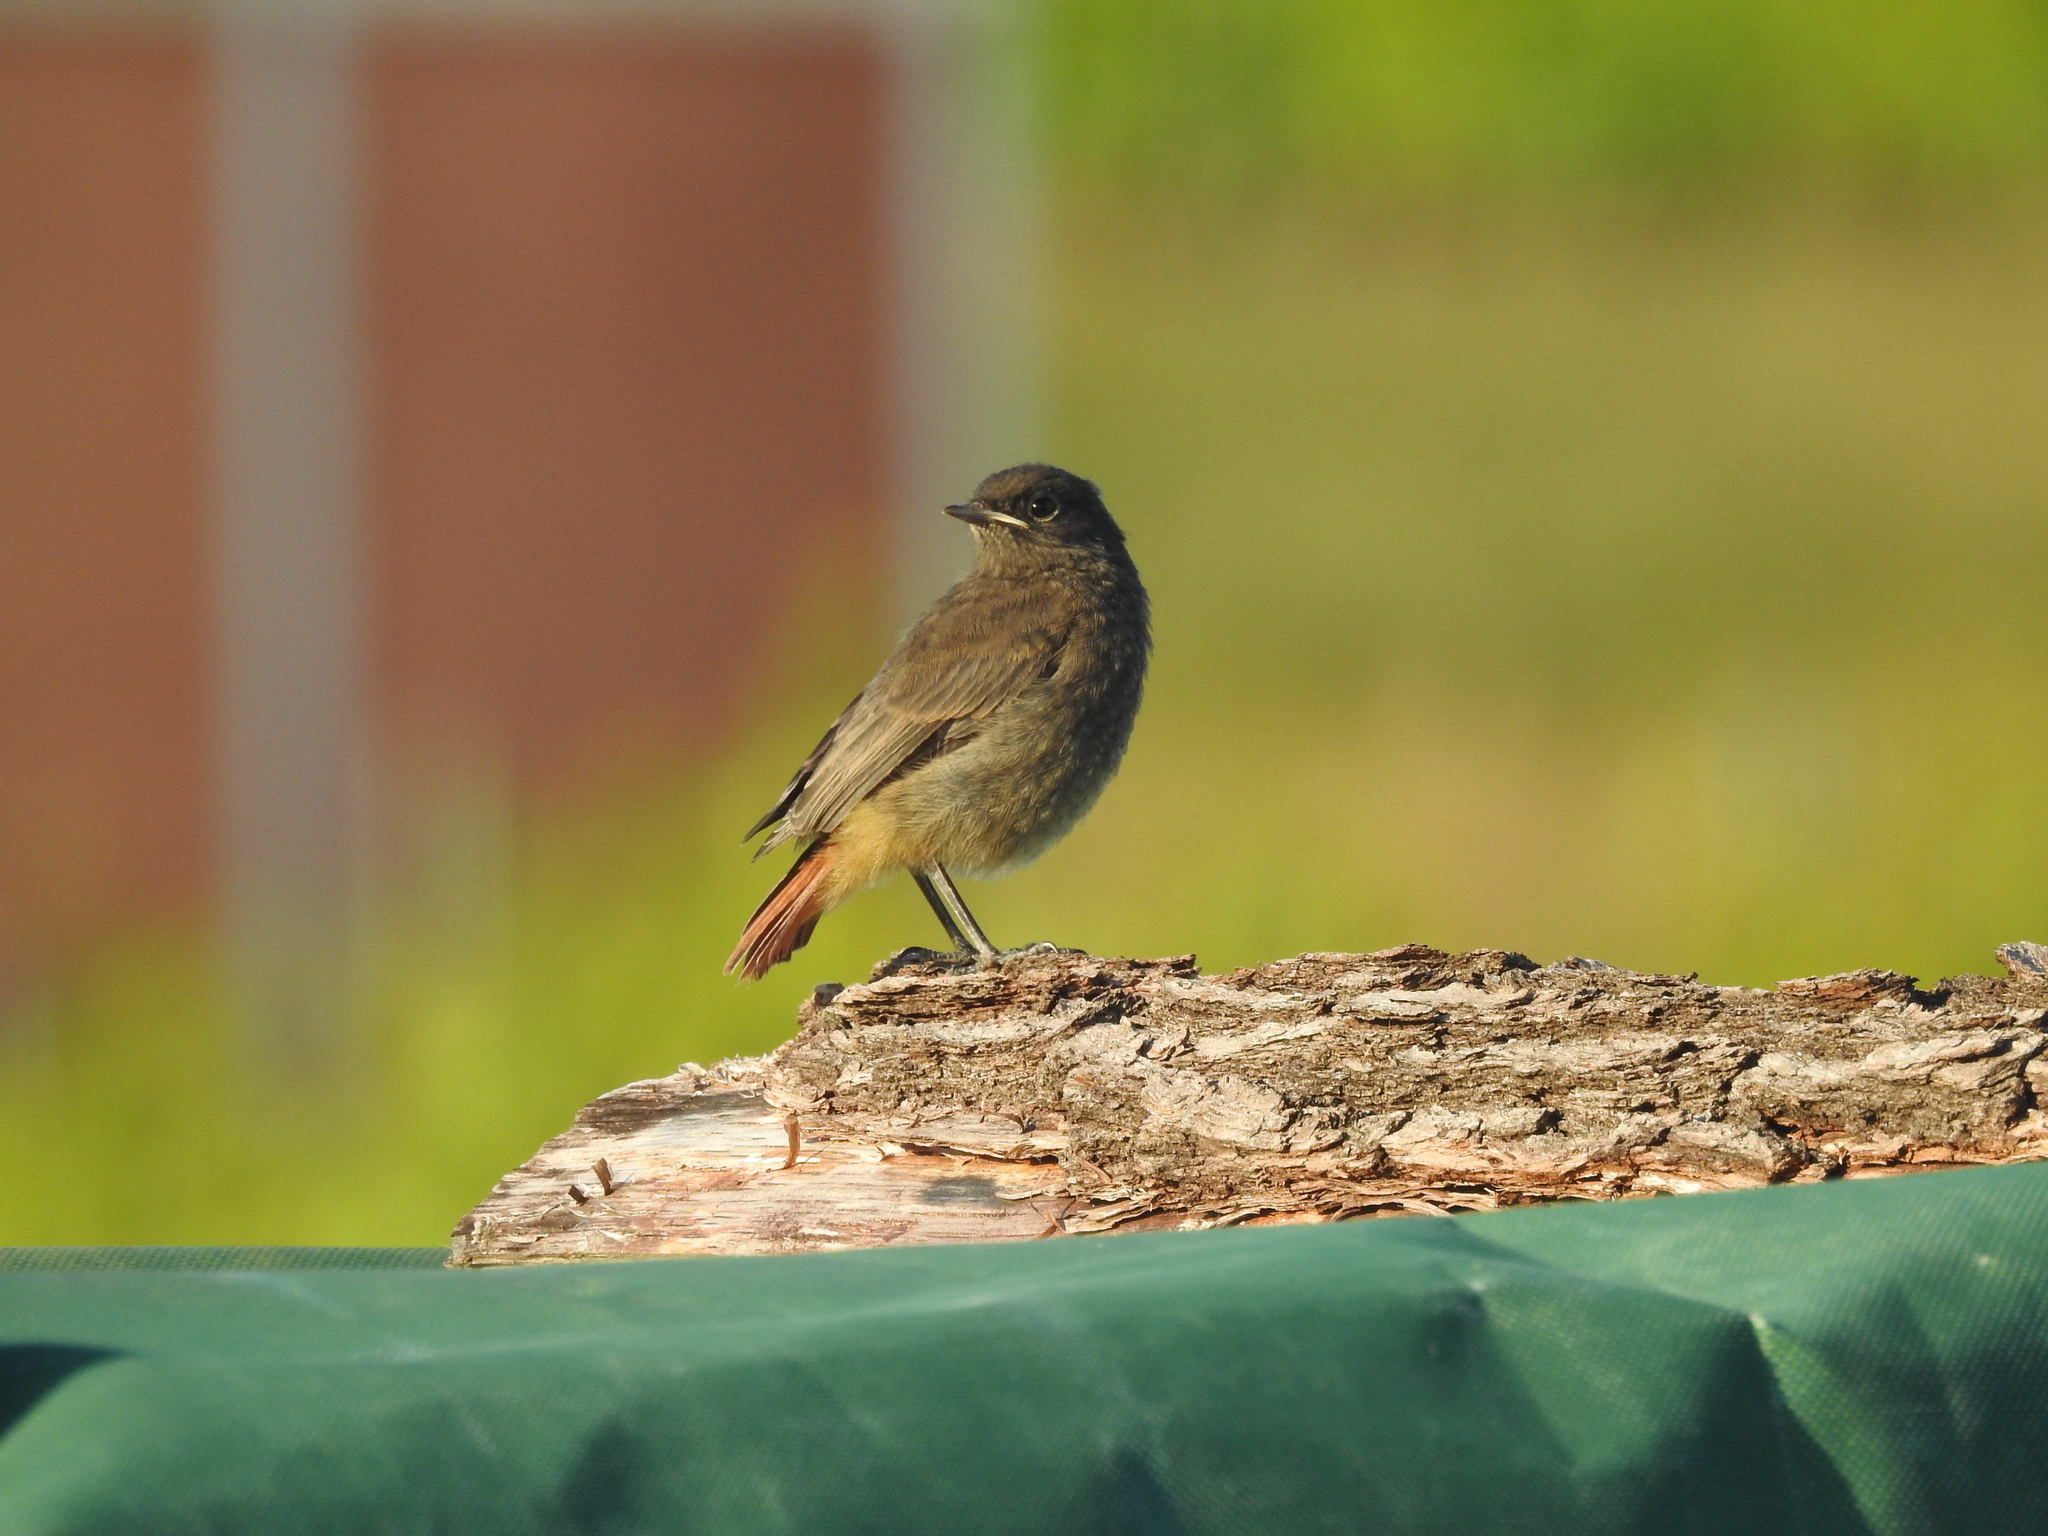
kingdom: Animalia
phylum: Chordata
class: Aves
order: Passeriformes
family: Muscicapidae
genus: Phoenicurus
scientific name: Phoenicurus ochruros
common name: Black redstart
